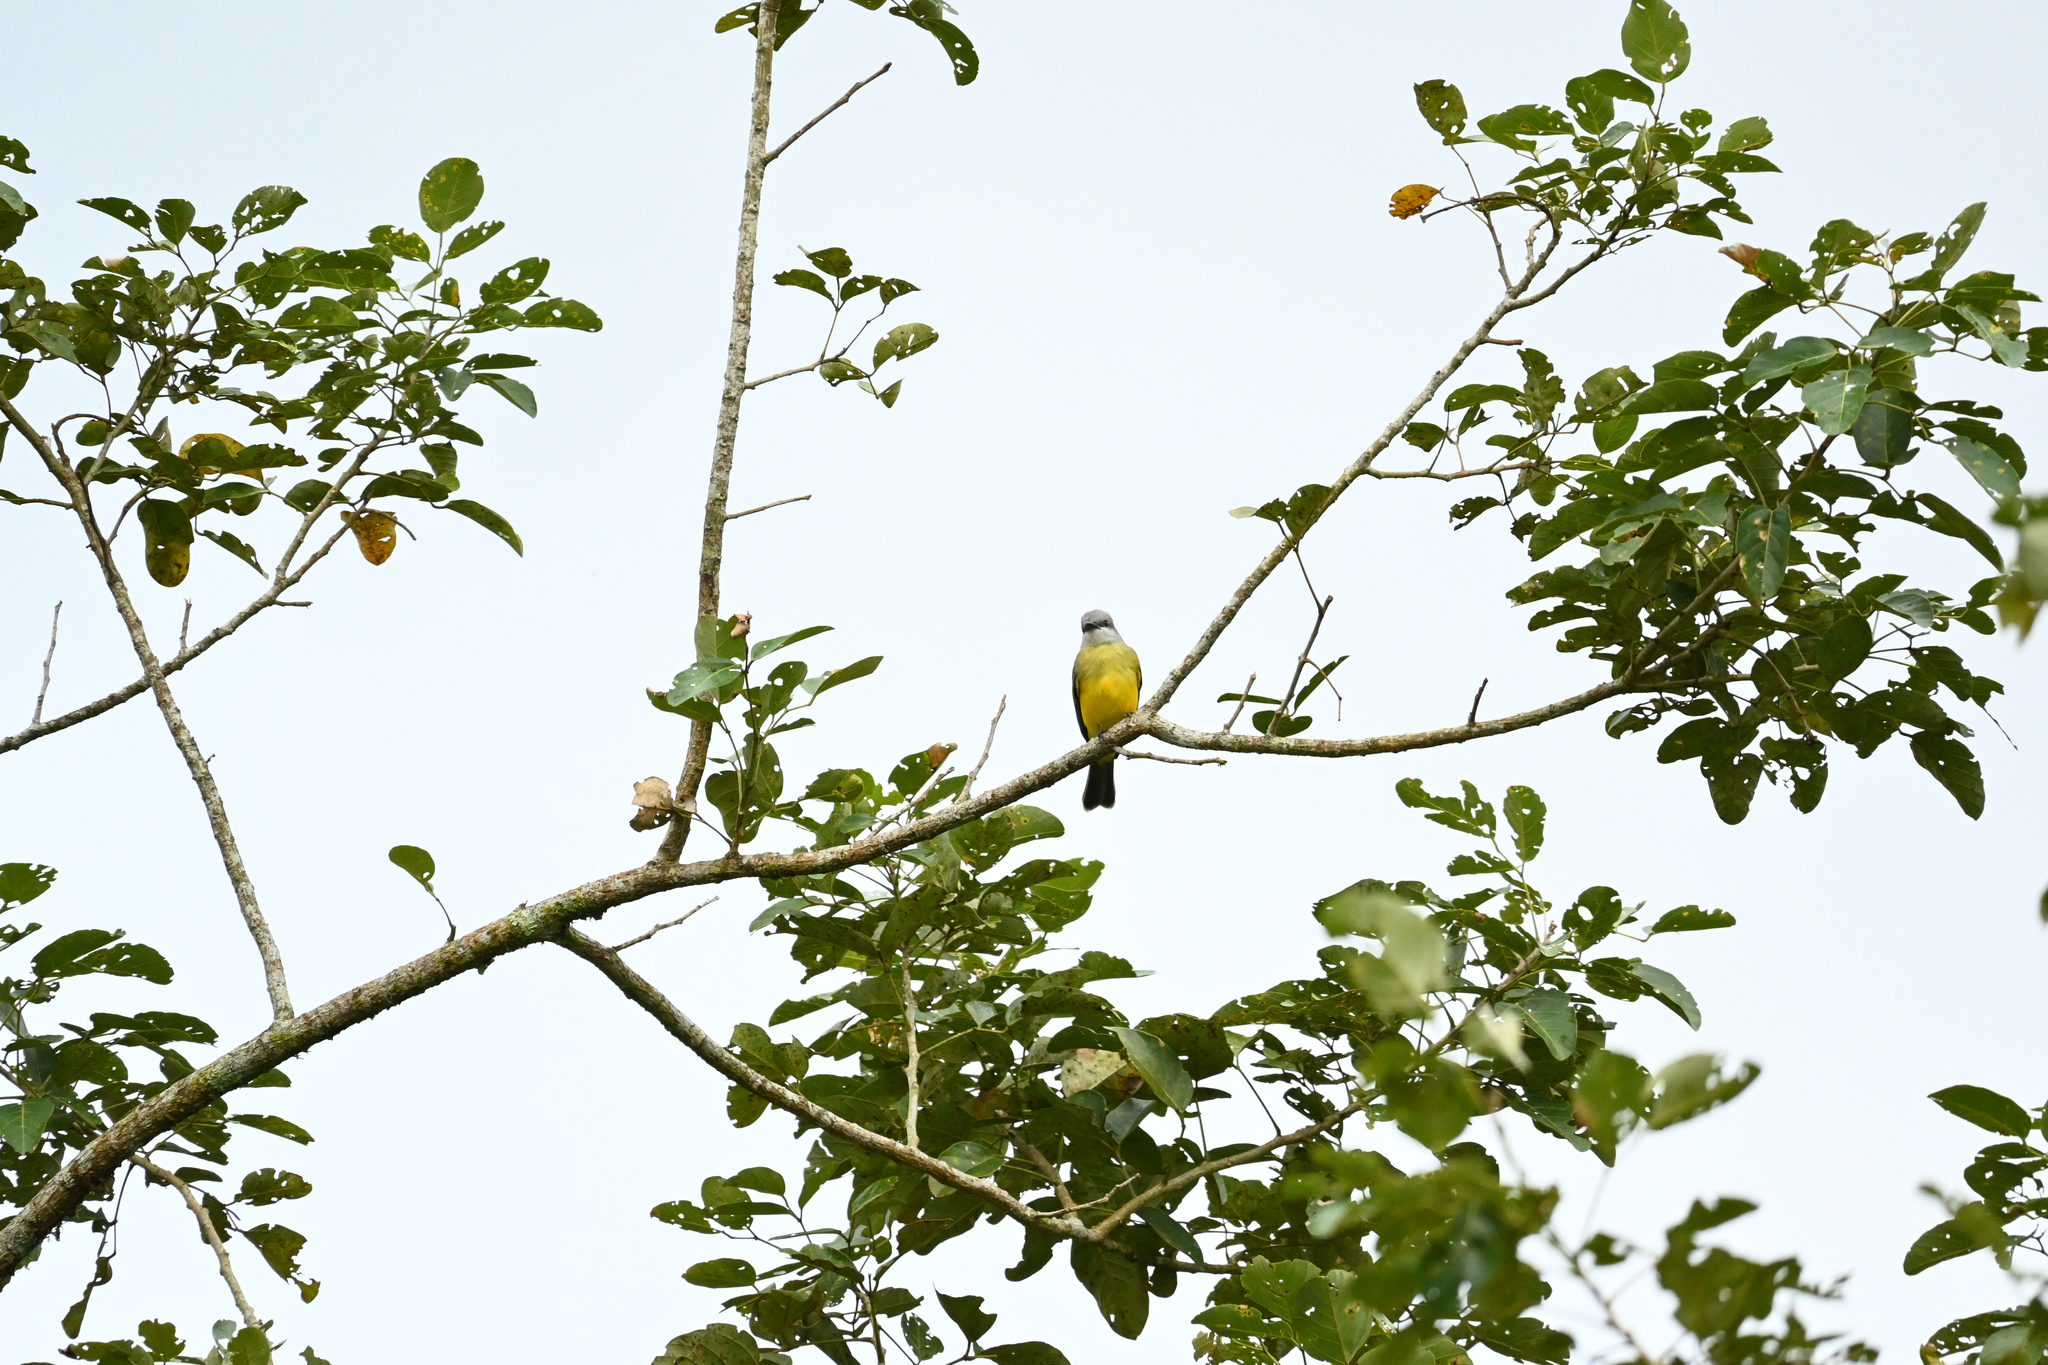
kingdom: Animalia
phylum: Chordata
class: Aves
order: Passeriformes
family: Tyrannidae
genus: Tyrannus
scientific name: Tyrannus melancholicus
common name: Tropical kingbird
